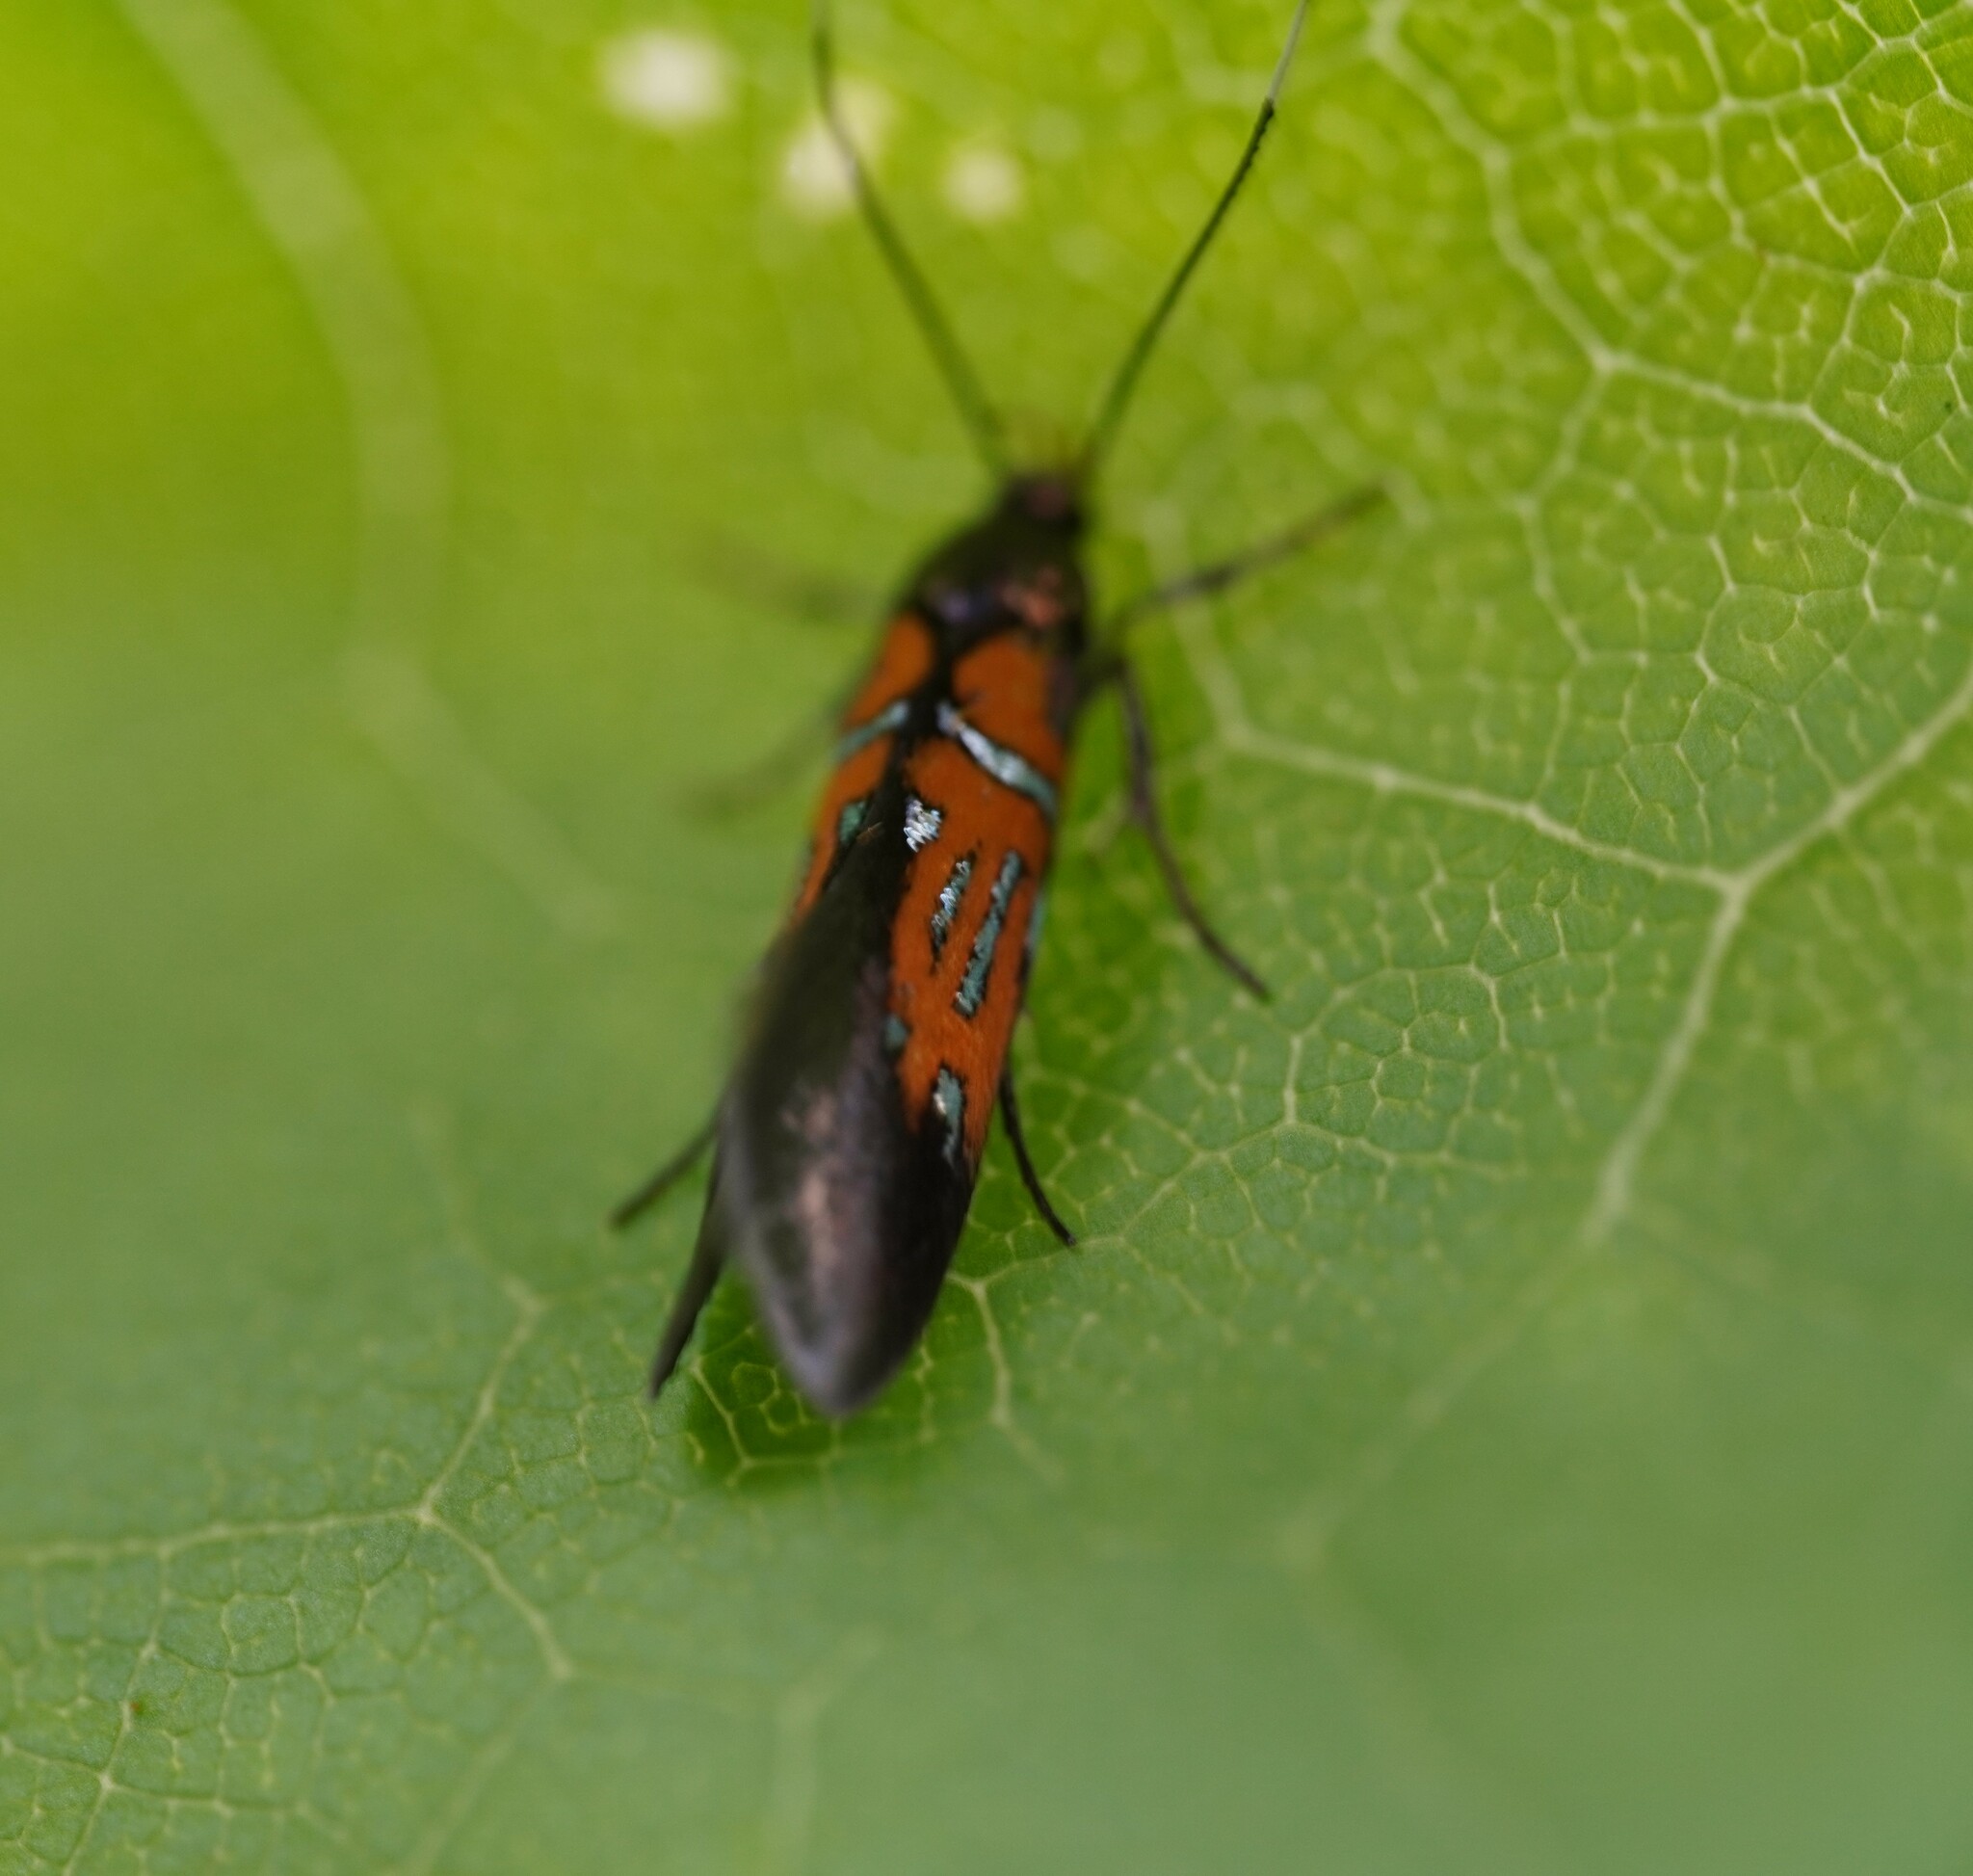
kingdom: Animalia
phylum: Arthropoda
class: Insecta
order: Lepidoptera
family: Oecophoridae
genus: Schiffermuelleria
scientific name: Schiffermuelleria schaefferella
